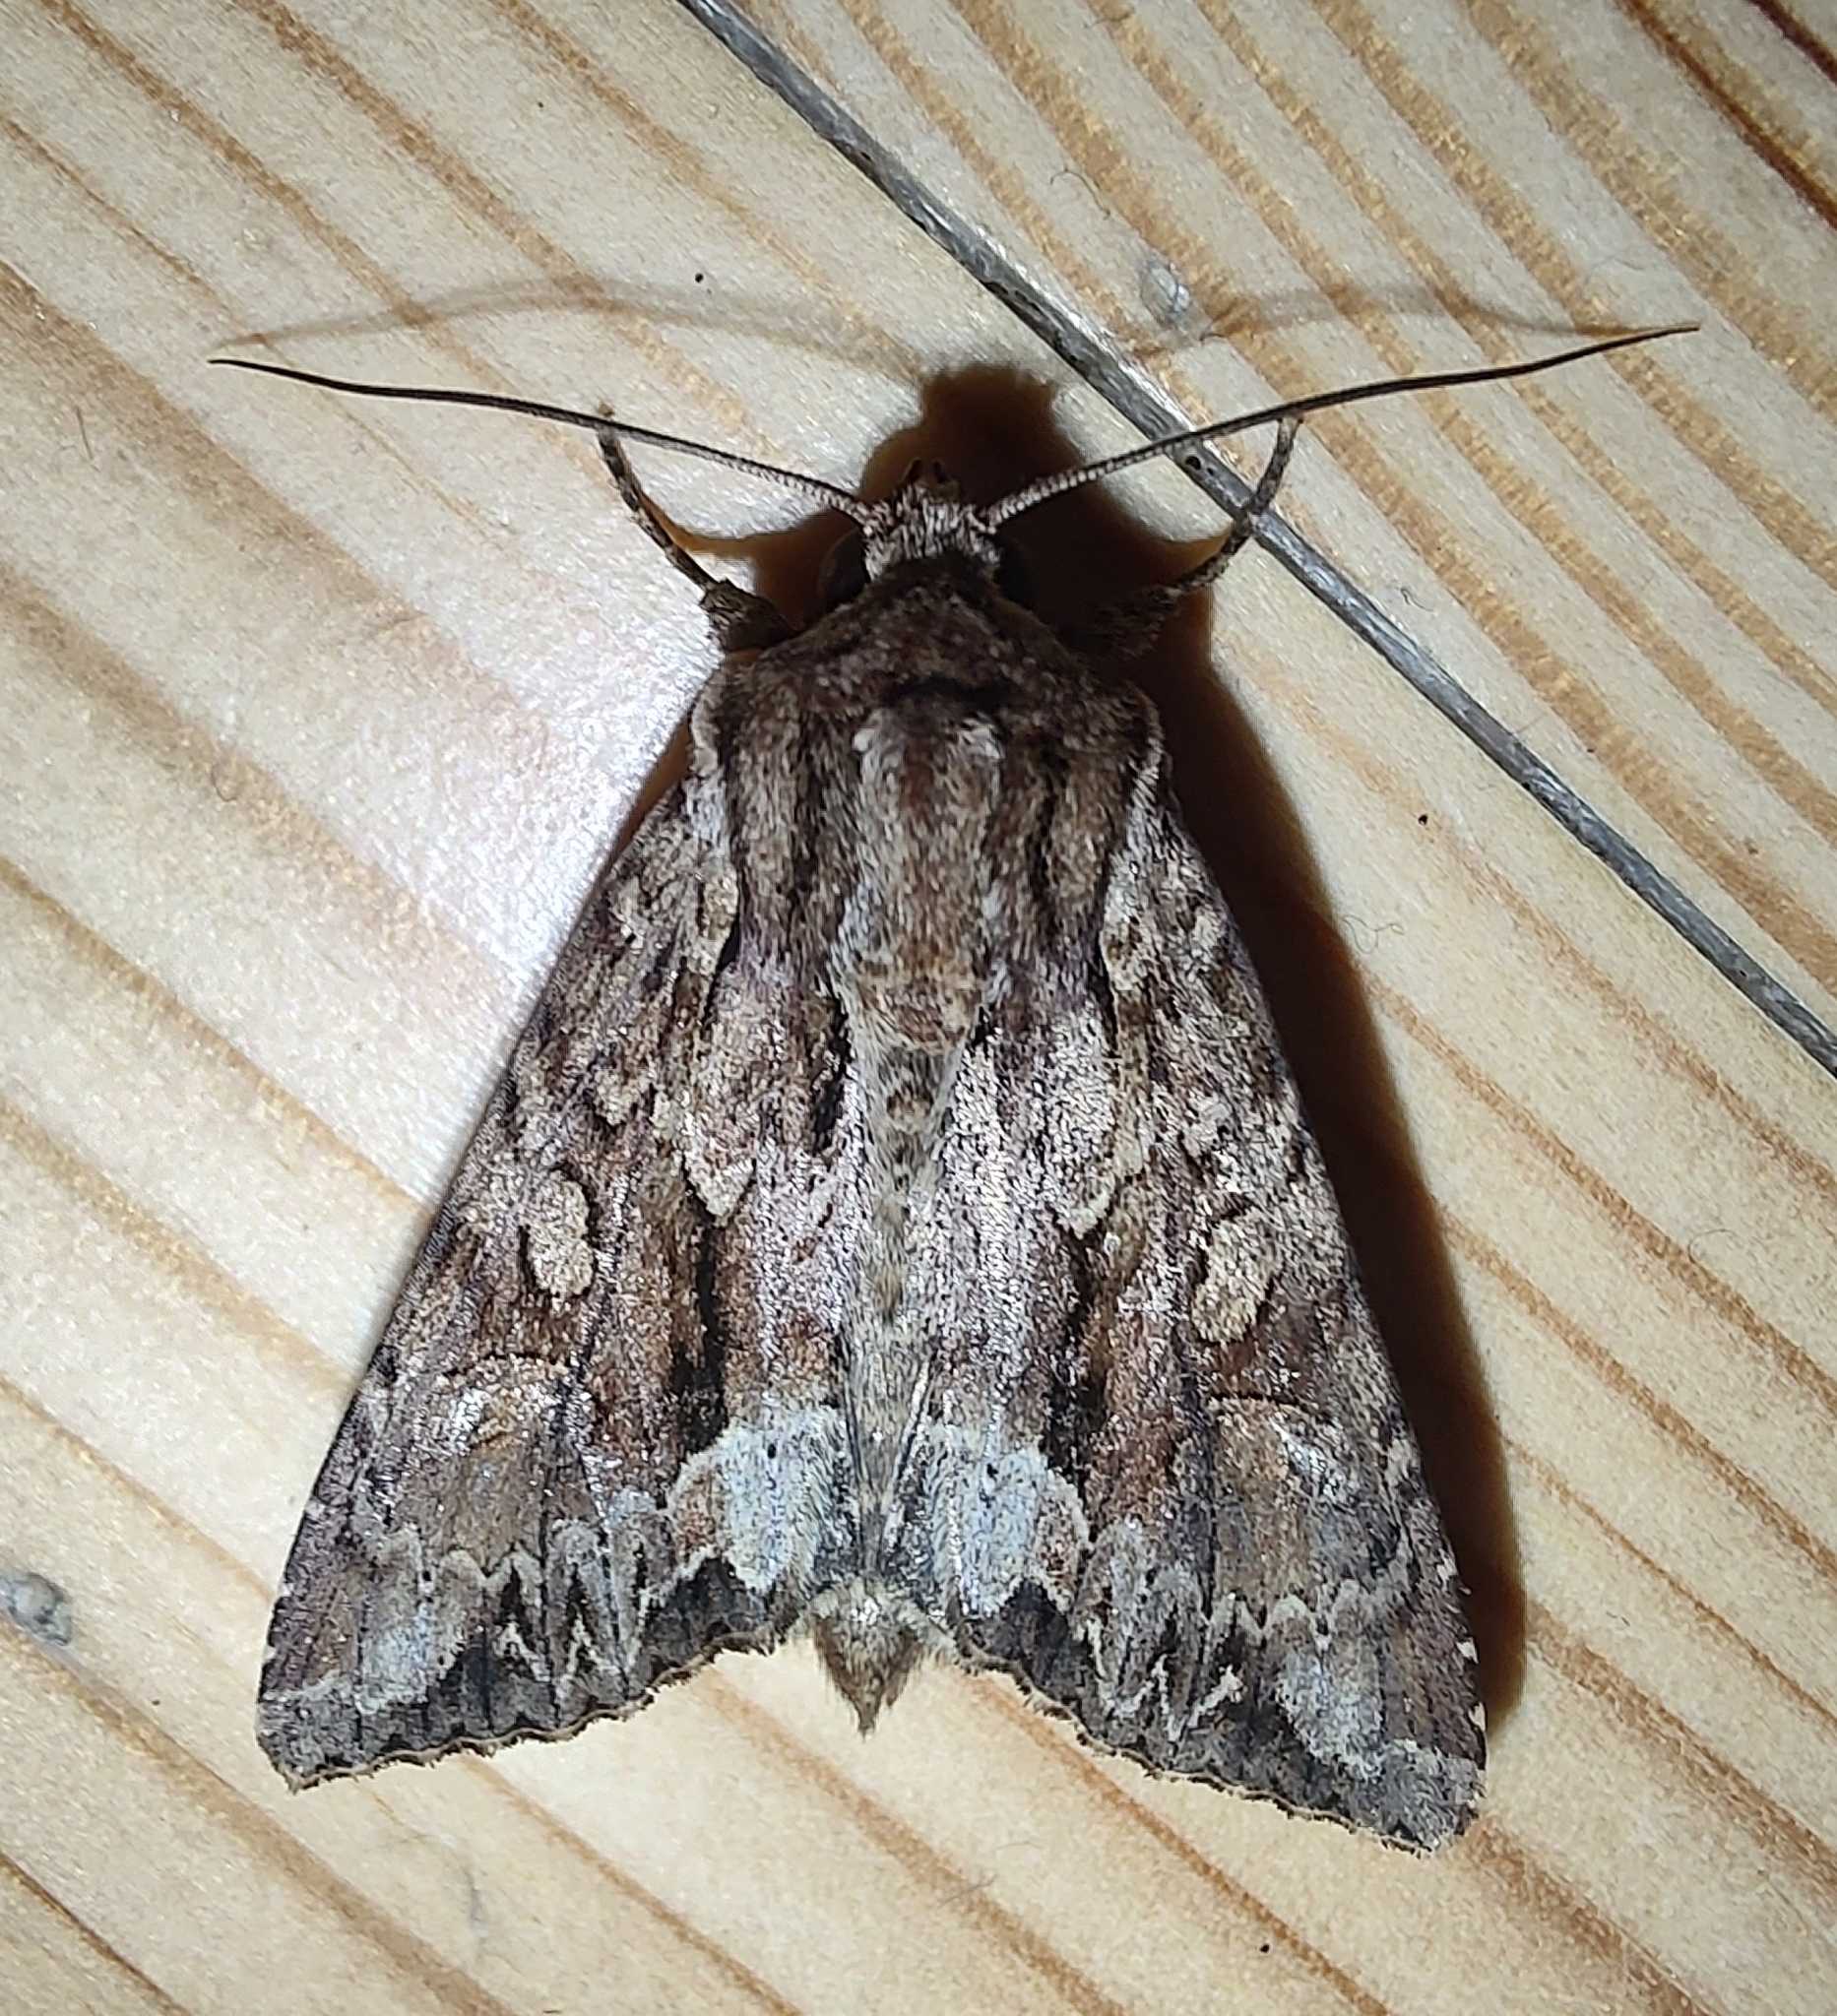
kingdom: Animalia
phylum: Arthropoda
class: Insecta
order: Lepidoptera
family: Noctuidae
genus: Apamea
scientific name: Apamea monoglypha
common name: Dark arches
